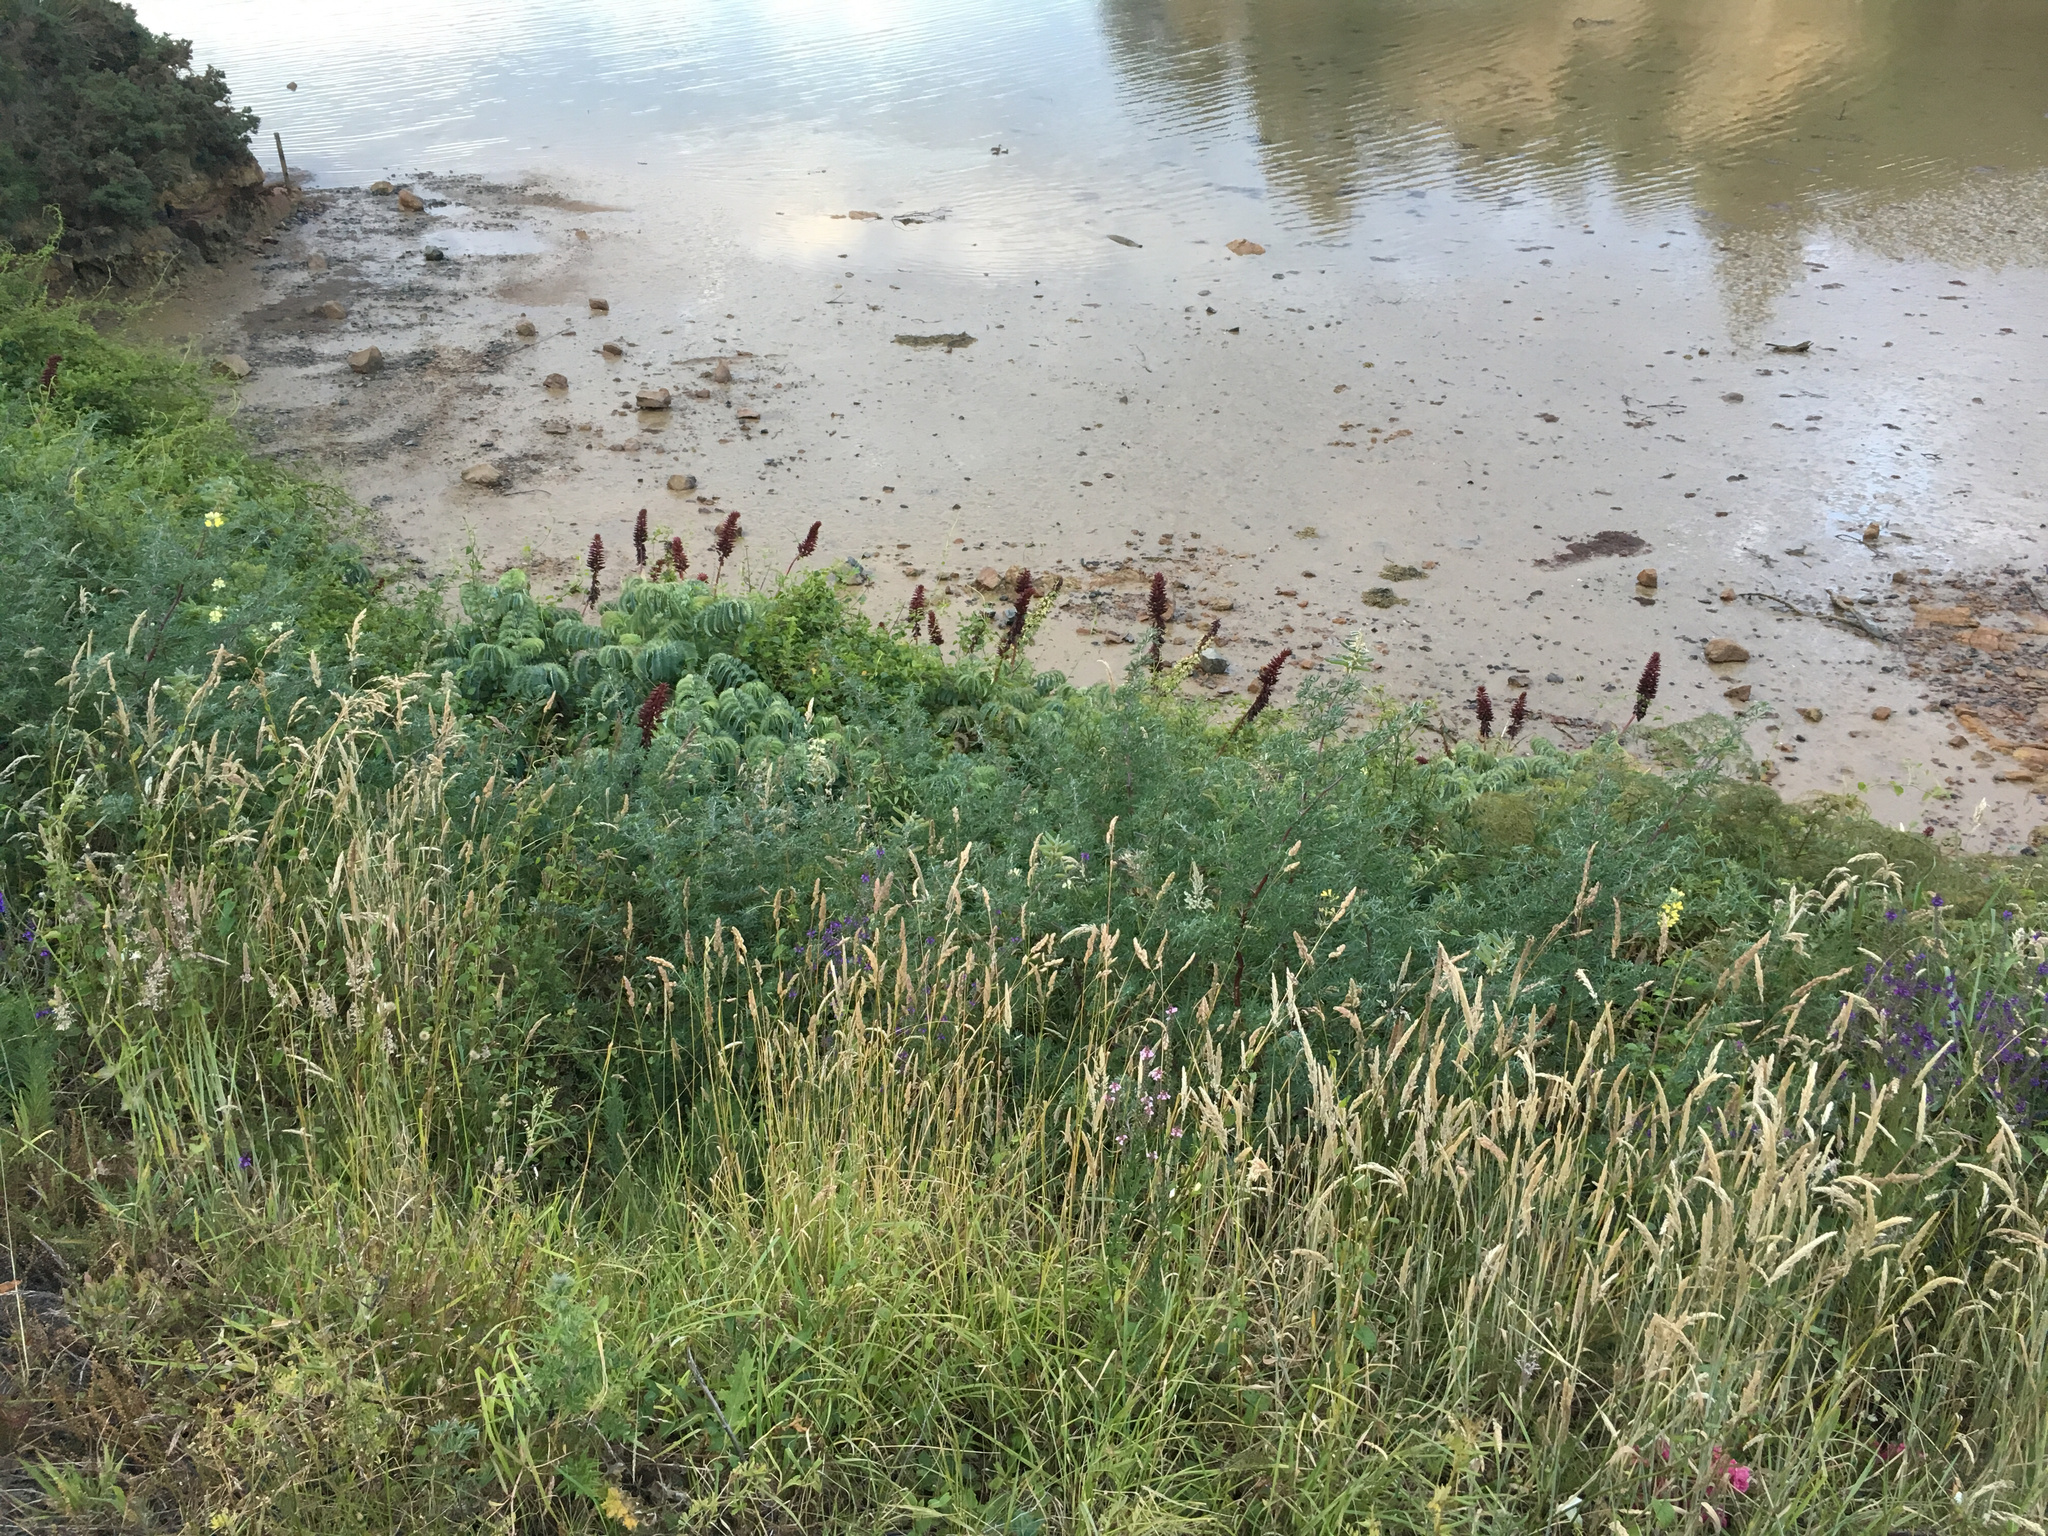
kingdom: Plantae
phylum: Tracheophyta
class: Magnoliopsida
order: Geraniales
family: Melianthaceae
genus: Melianthus
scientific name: Melianthus major
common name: Honey-flower
